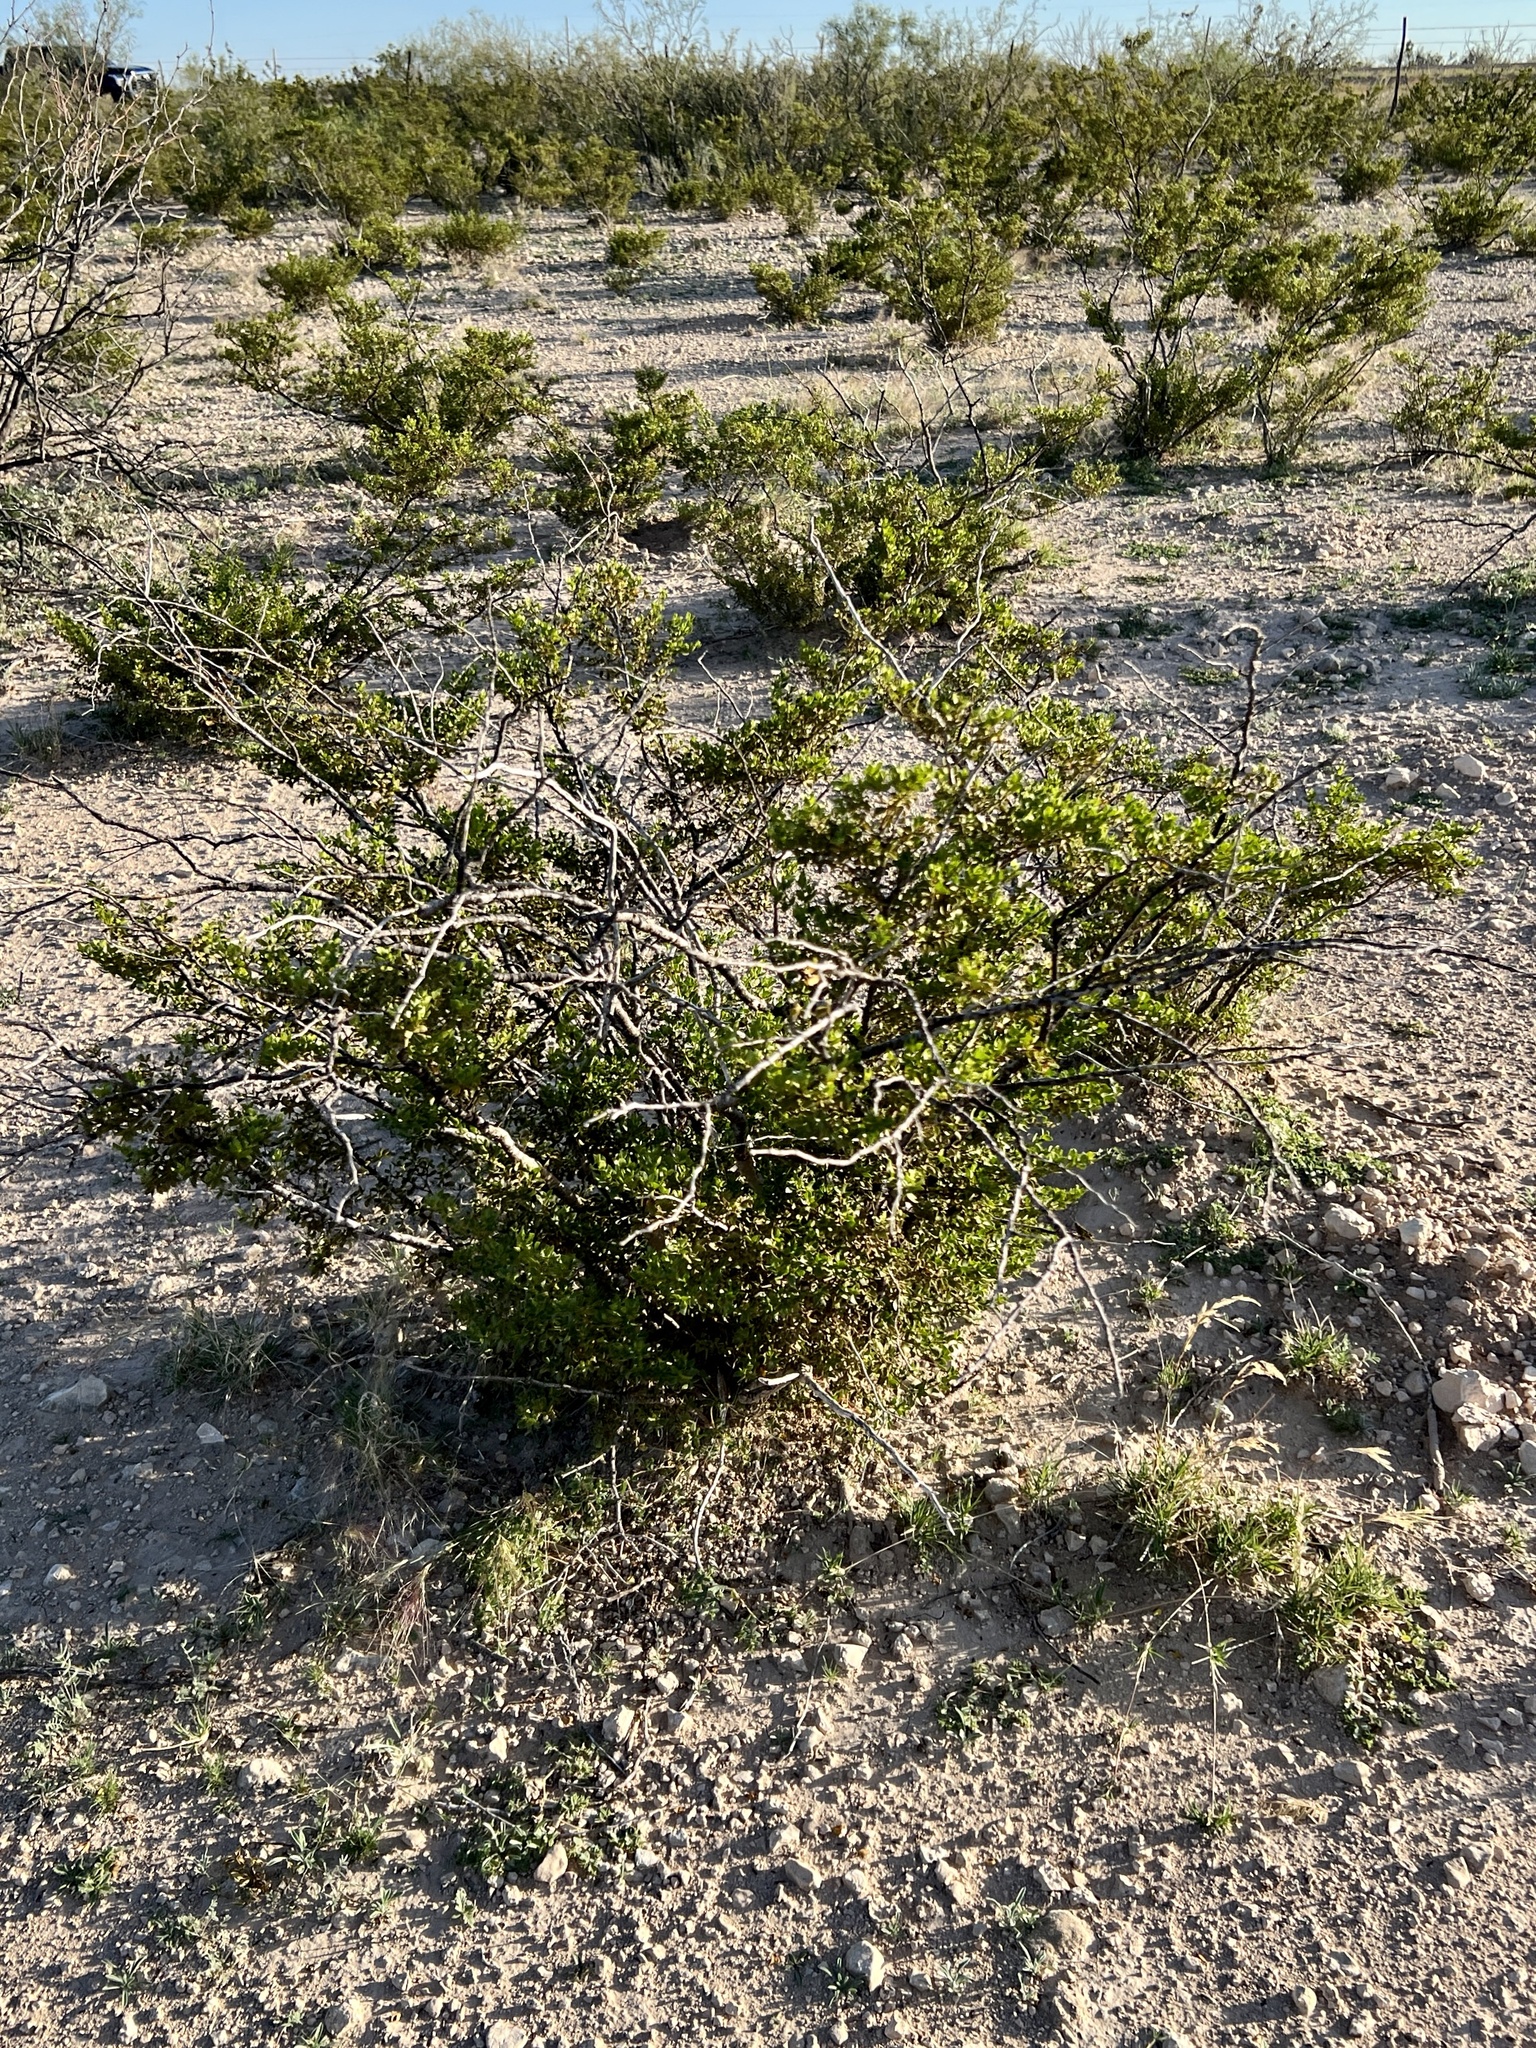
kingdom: Plantae
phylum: Tracheophyta
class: Magnoliopsida
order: Zygophyllales
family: Zygophyllaceae
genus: Larrea
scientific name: Larrea tridentata
